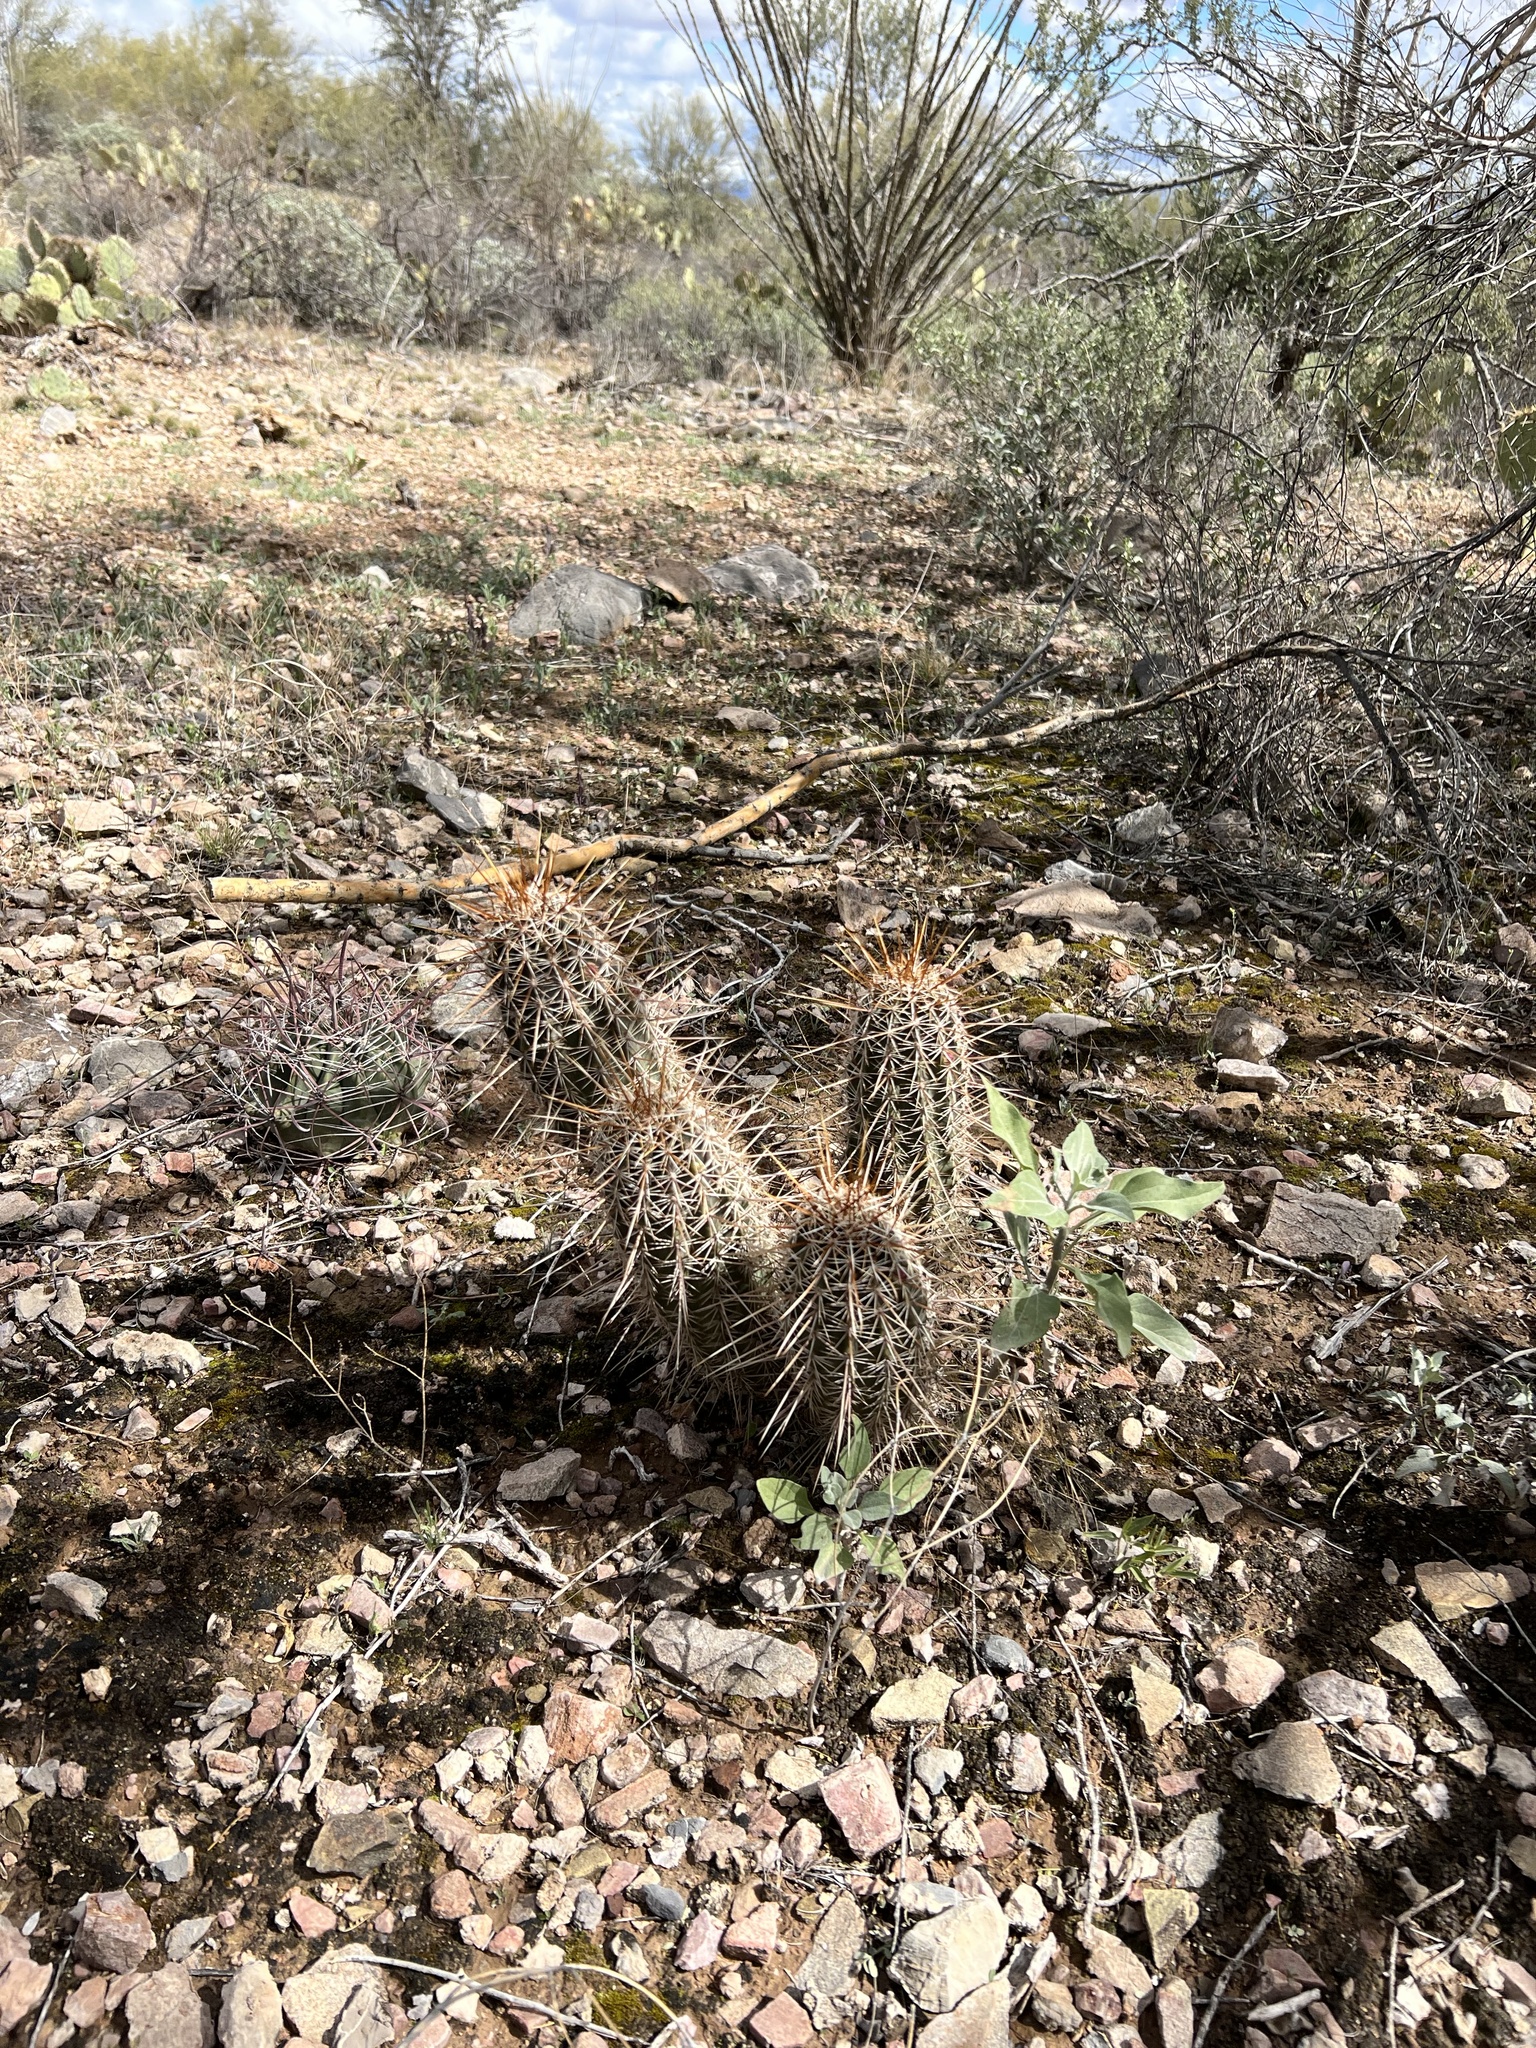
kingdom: Plantae
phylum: Tracheophyta
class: Magnoliopsida
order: Caryophyllales
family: Cactaceae
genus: Echinocereus
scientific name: Echinocereus fasciculatus
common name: Bundle hedgehog
